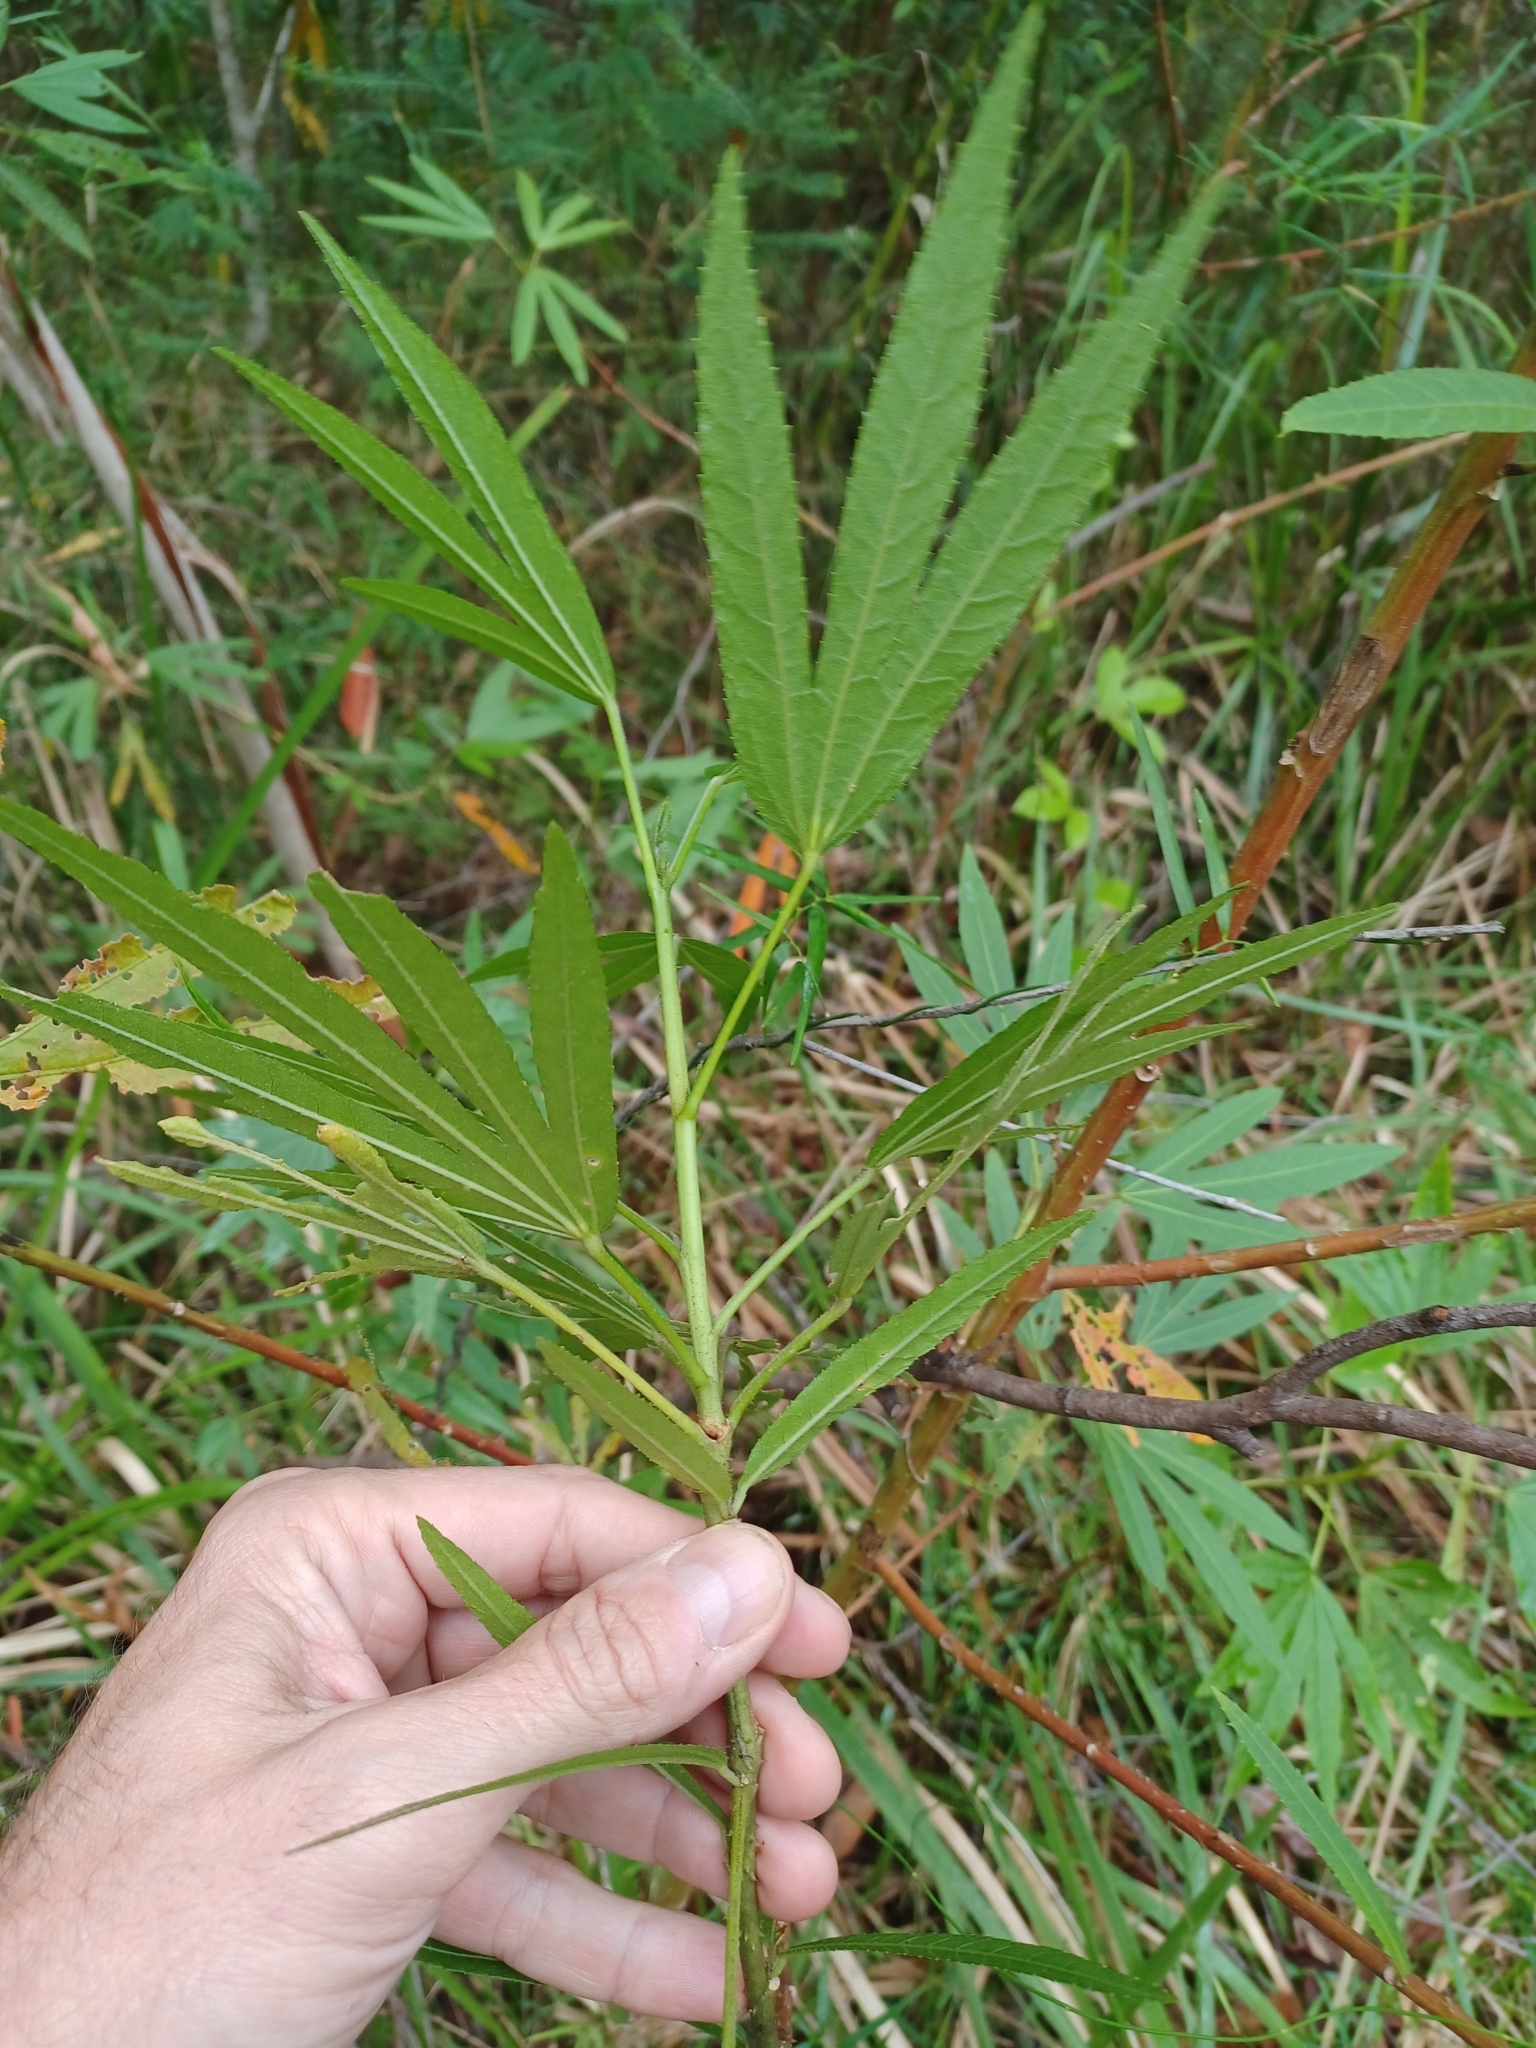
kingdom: Plantae
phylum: Tracheophyta
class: Magnoliopsida
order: Malvales
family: Malvaceae
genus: Hibiscus
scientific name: Hibiscus heterophyllus
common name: Queensland-sorrel
